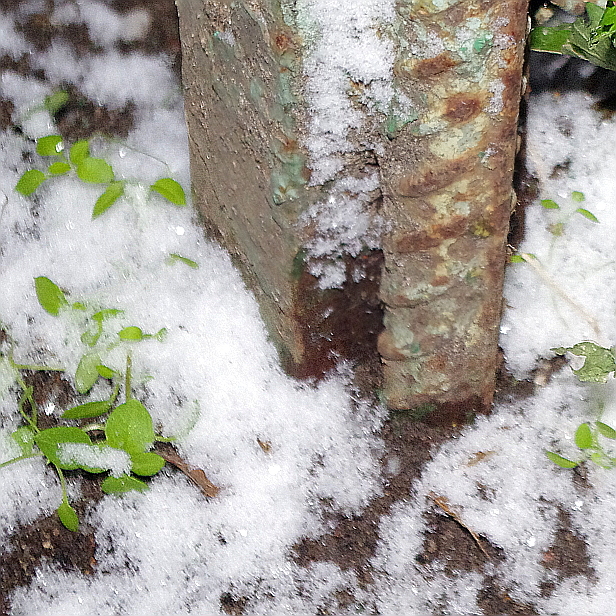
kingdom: Plantae
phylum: Tracheophyta
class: Magnoliopsida
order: Caryophyllales
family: Caryophyllaceae
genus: Stellaria
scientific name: Stellaria media
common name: Common chickweed
